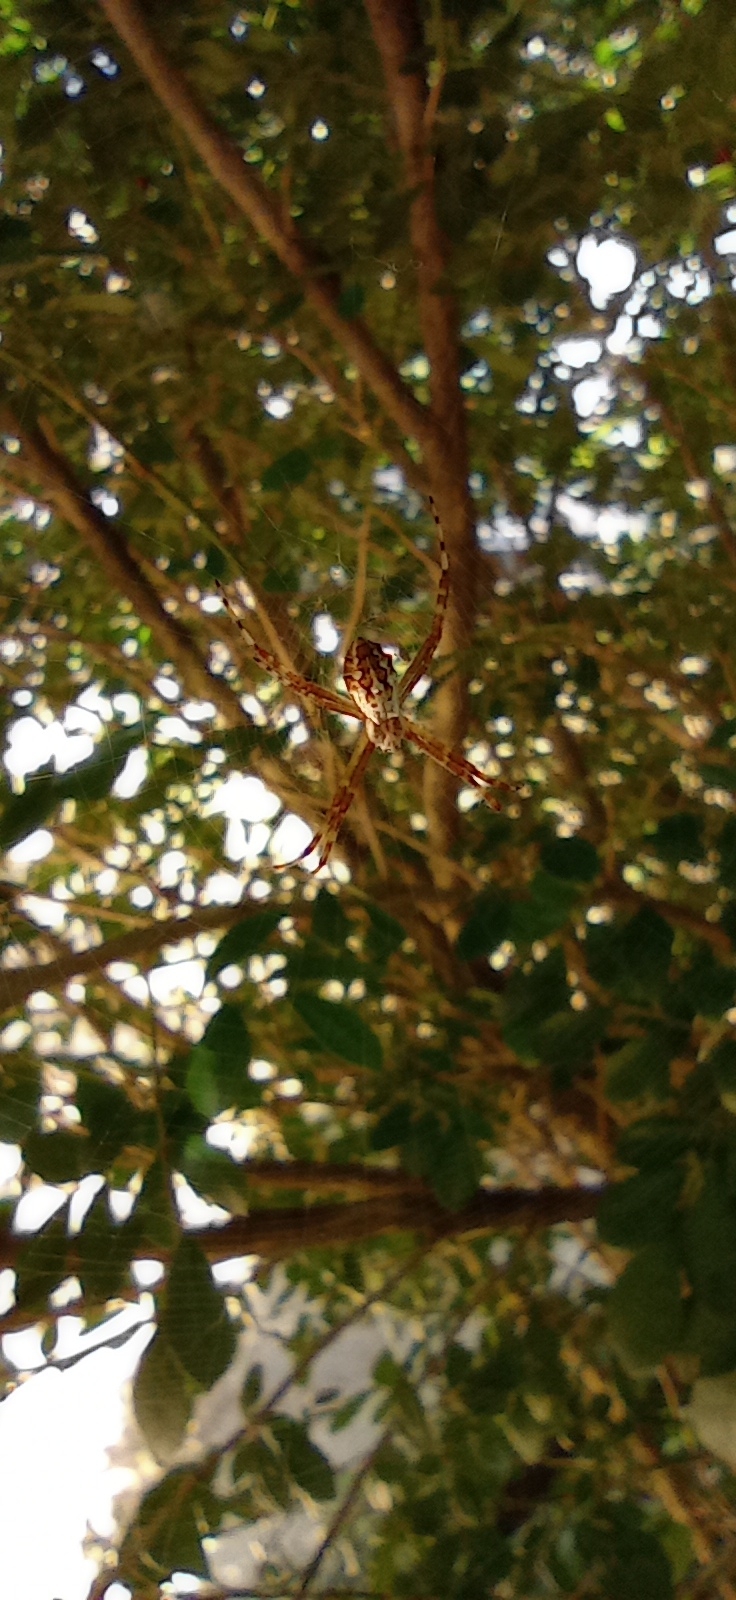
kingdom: Animalia
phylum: Arthropoda
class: Arachnida
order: Araneae
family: Araneidae
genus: Argiope
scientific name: Argiope argentata
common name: Orb weavers
